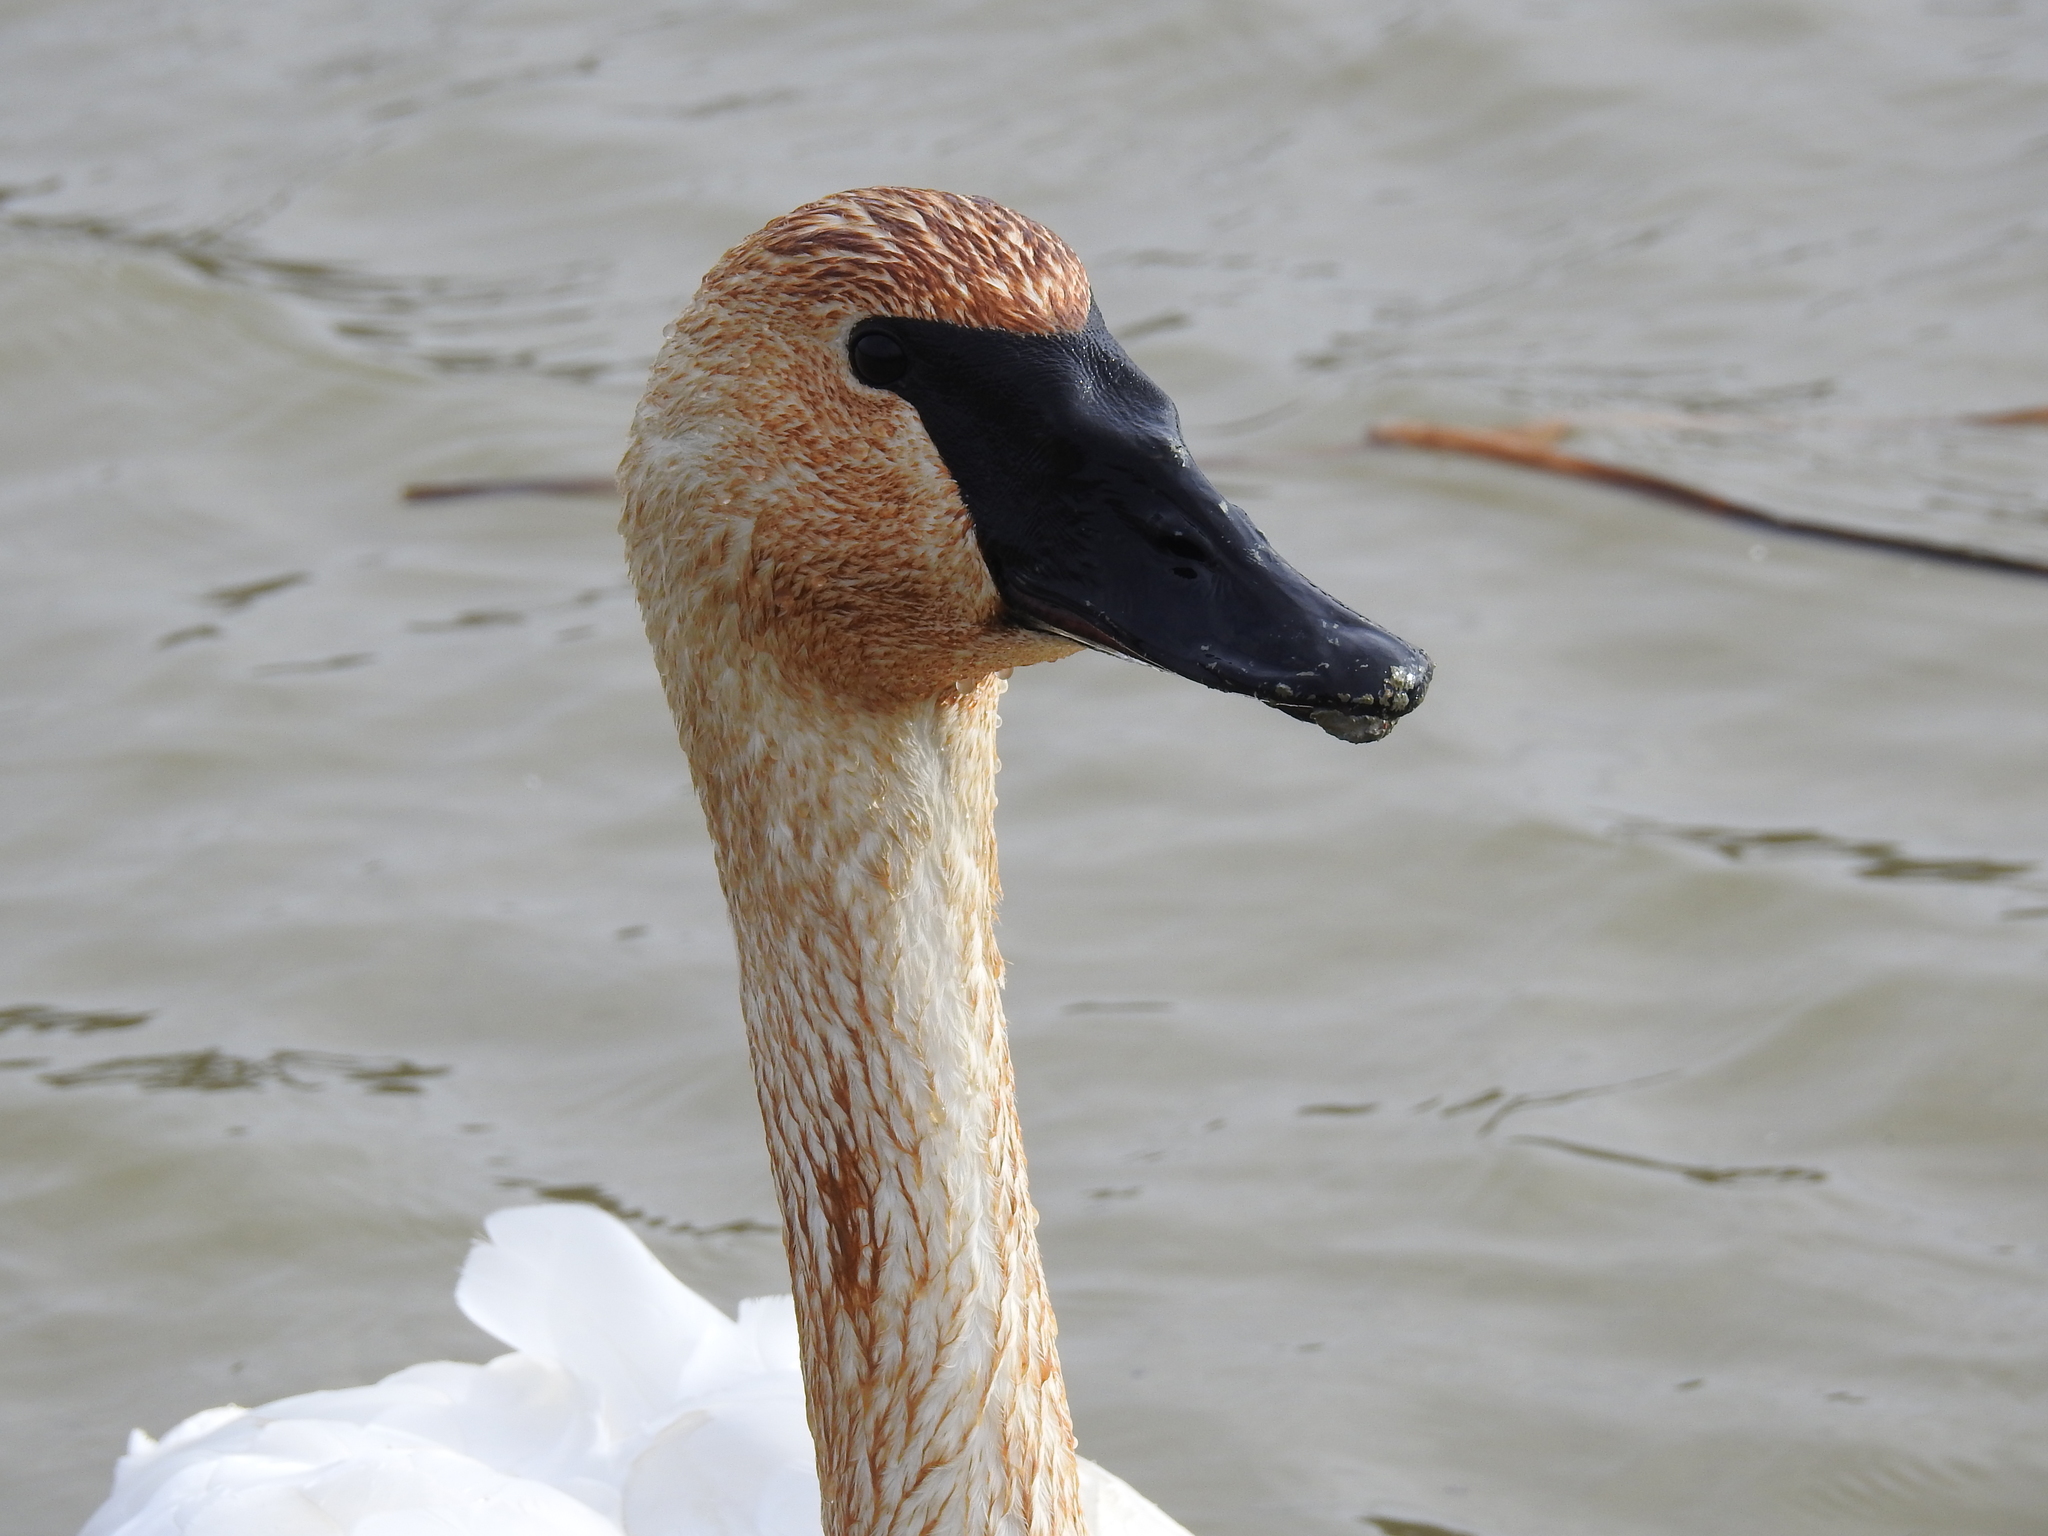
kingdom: Animalia
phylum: Chordata
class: Aves
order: Anseriformes
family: Anatidae
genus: Cygnus
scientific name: Cygnus buccinator
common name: Trumpeter swan
